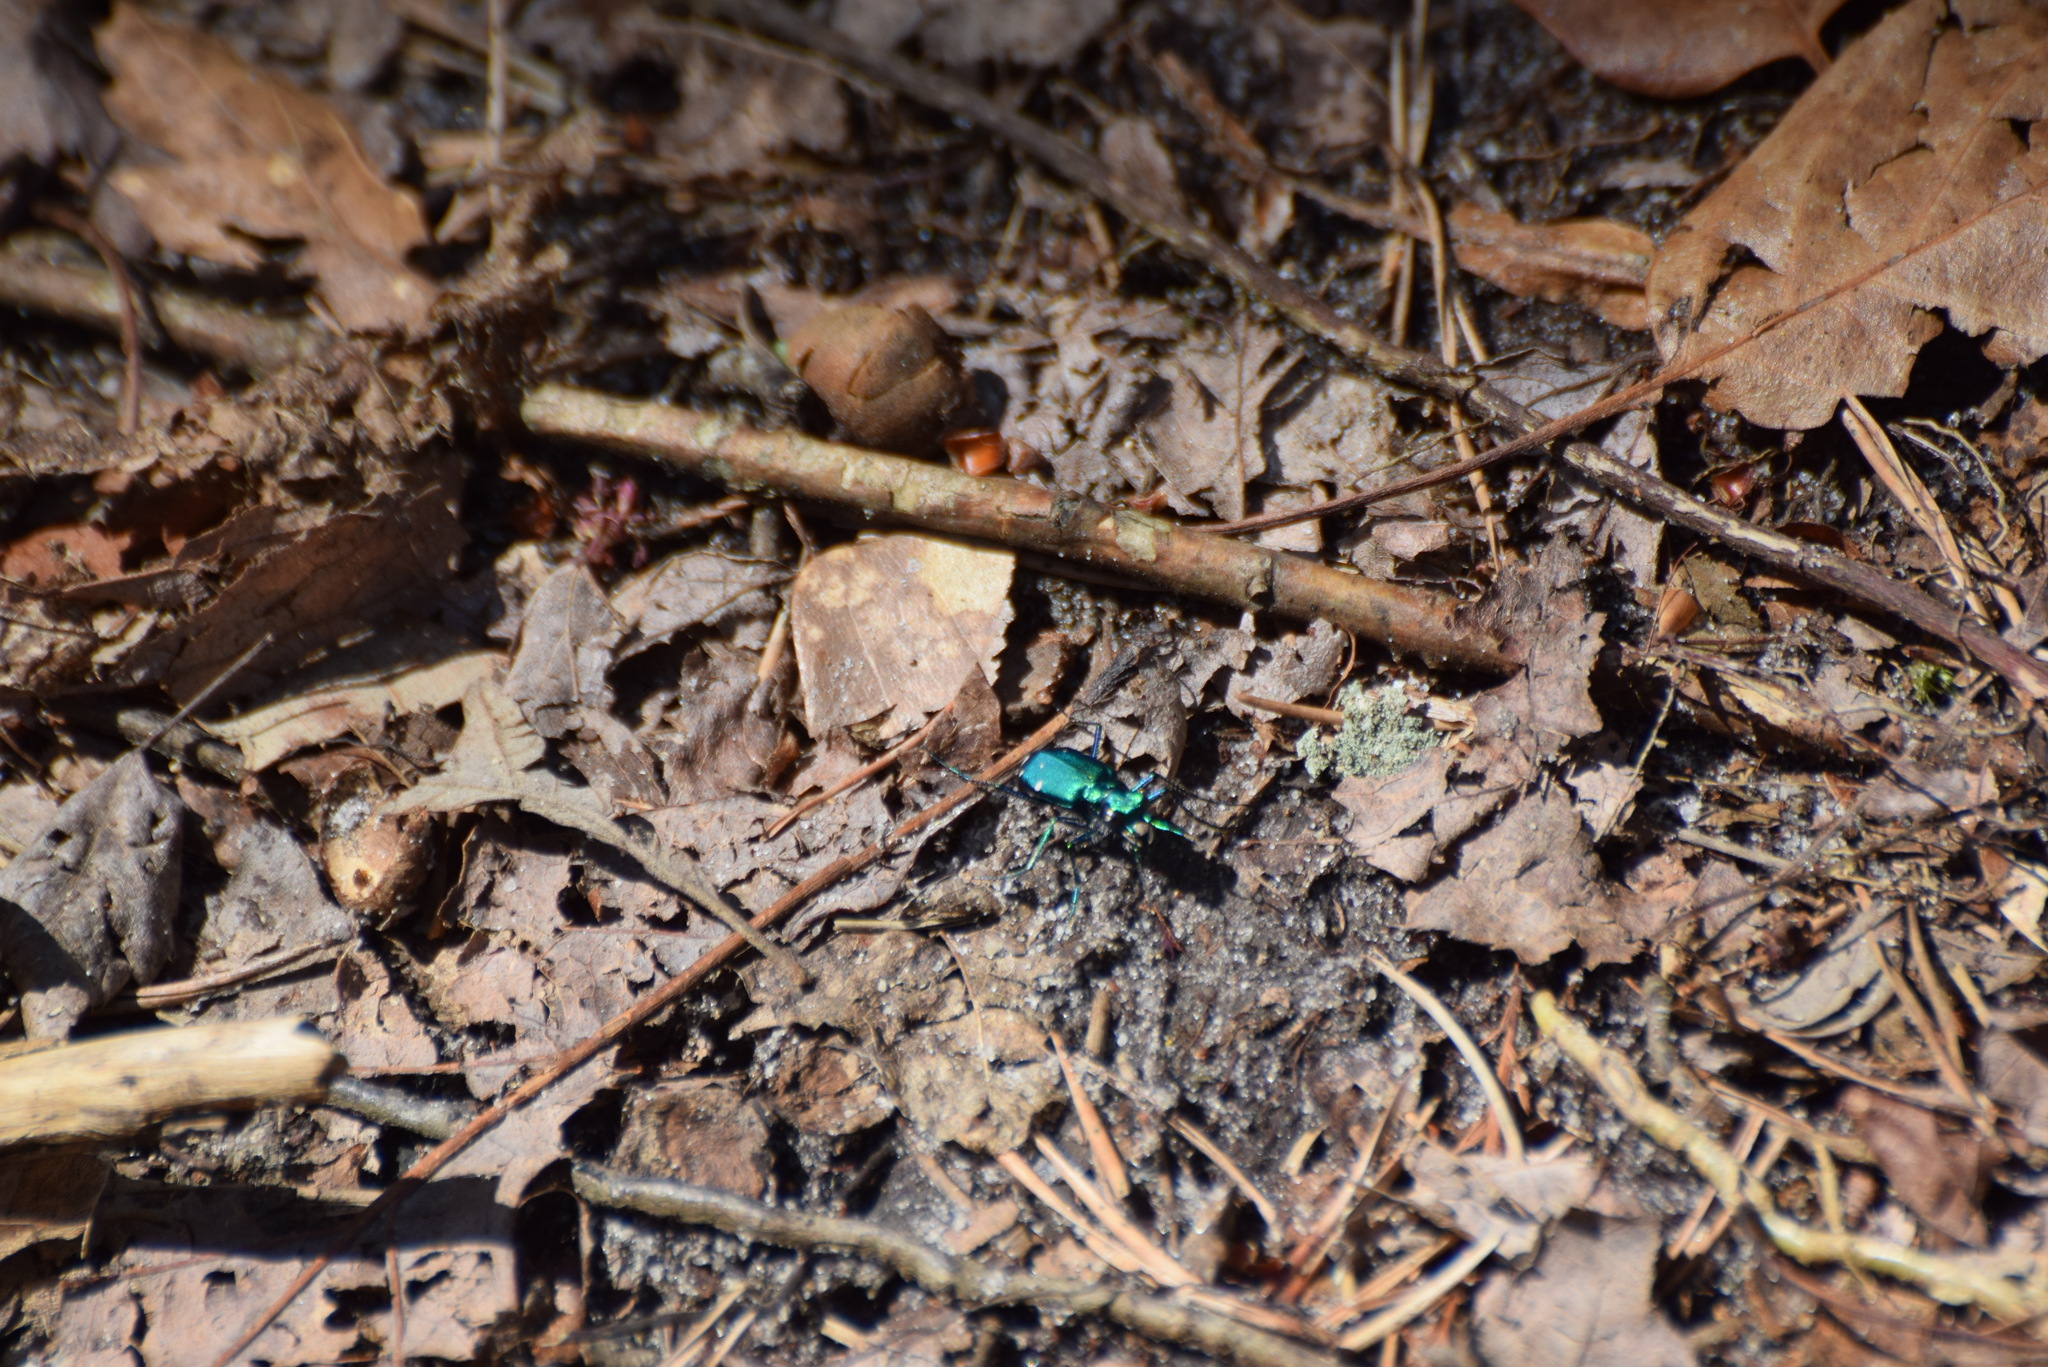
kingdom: Animalia
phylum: Arthropoda
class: Insecta
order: Coleoptera
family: Carabidae
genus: Cicindela
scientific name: Cicindela sexguttata
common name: Six-spotted tiger beetle
